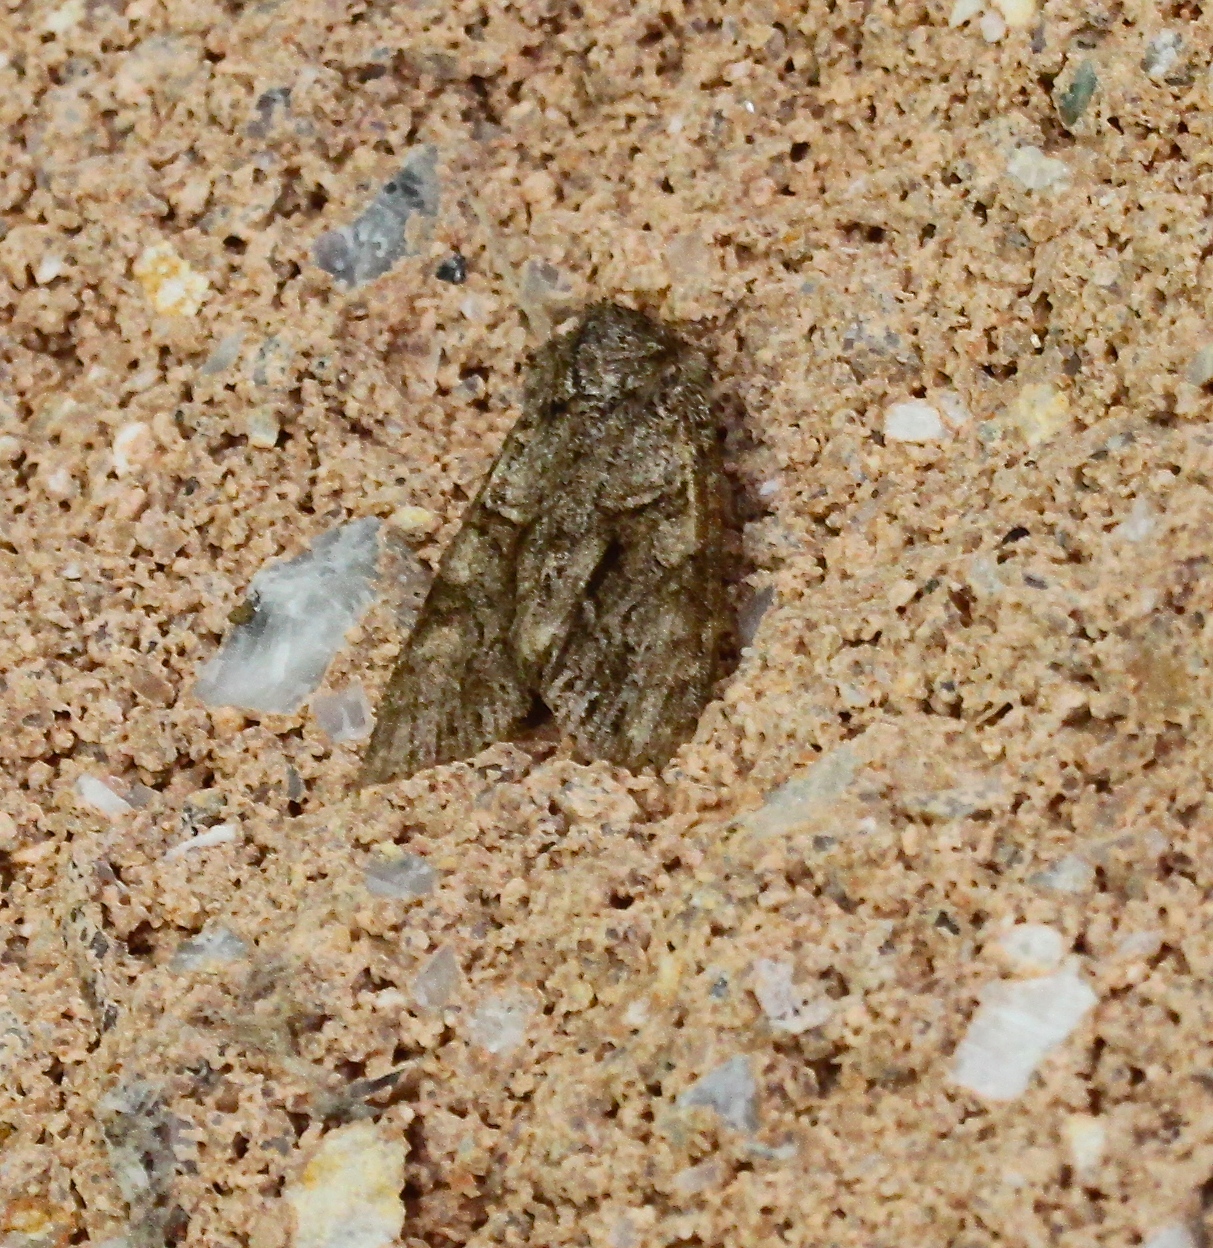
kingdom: Animalia
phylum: Arthropoda
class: Insecta
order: Lepidoptera
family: Noctuidae
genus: Achatia
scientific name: Achatia distincta
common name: Distinct quaker
